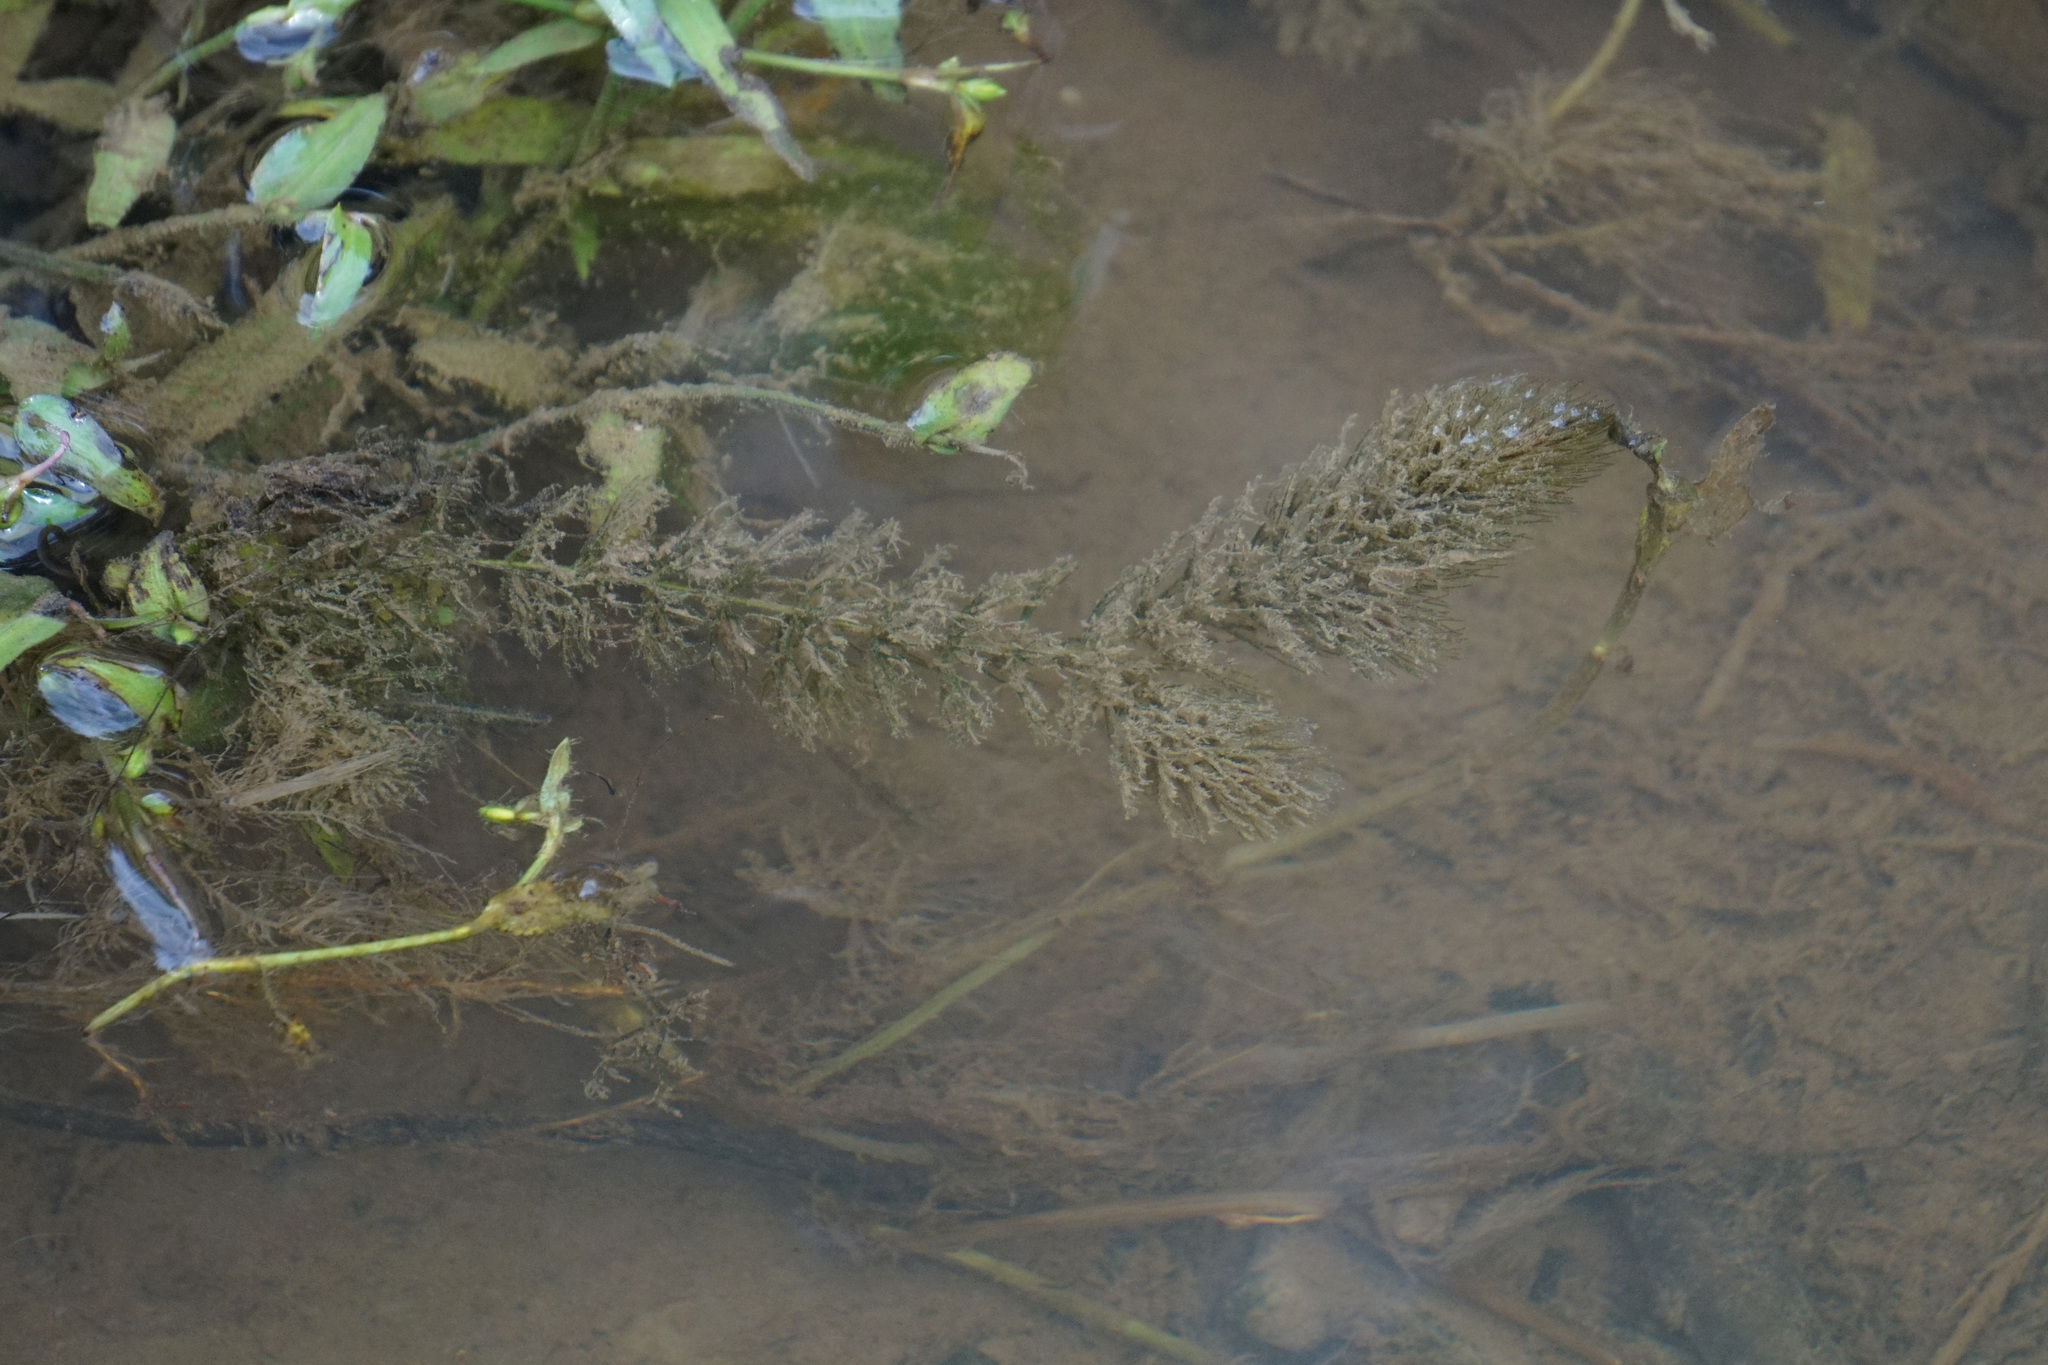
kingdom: Plantae
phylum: Tracheophyta
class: Magnoliopsida
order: Ceratophyllales
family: Ceratophyllaceae
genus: Ceratophyllum
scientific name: Ceratophyllum demersum
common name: Rigid hornwort
